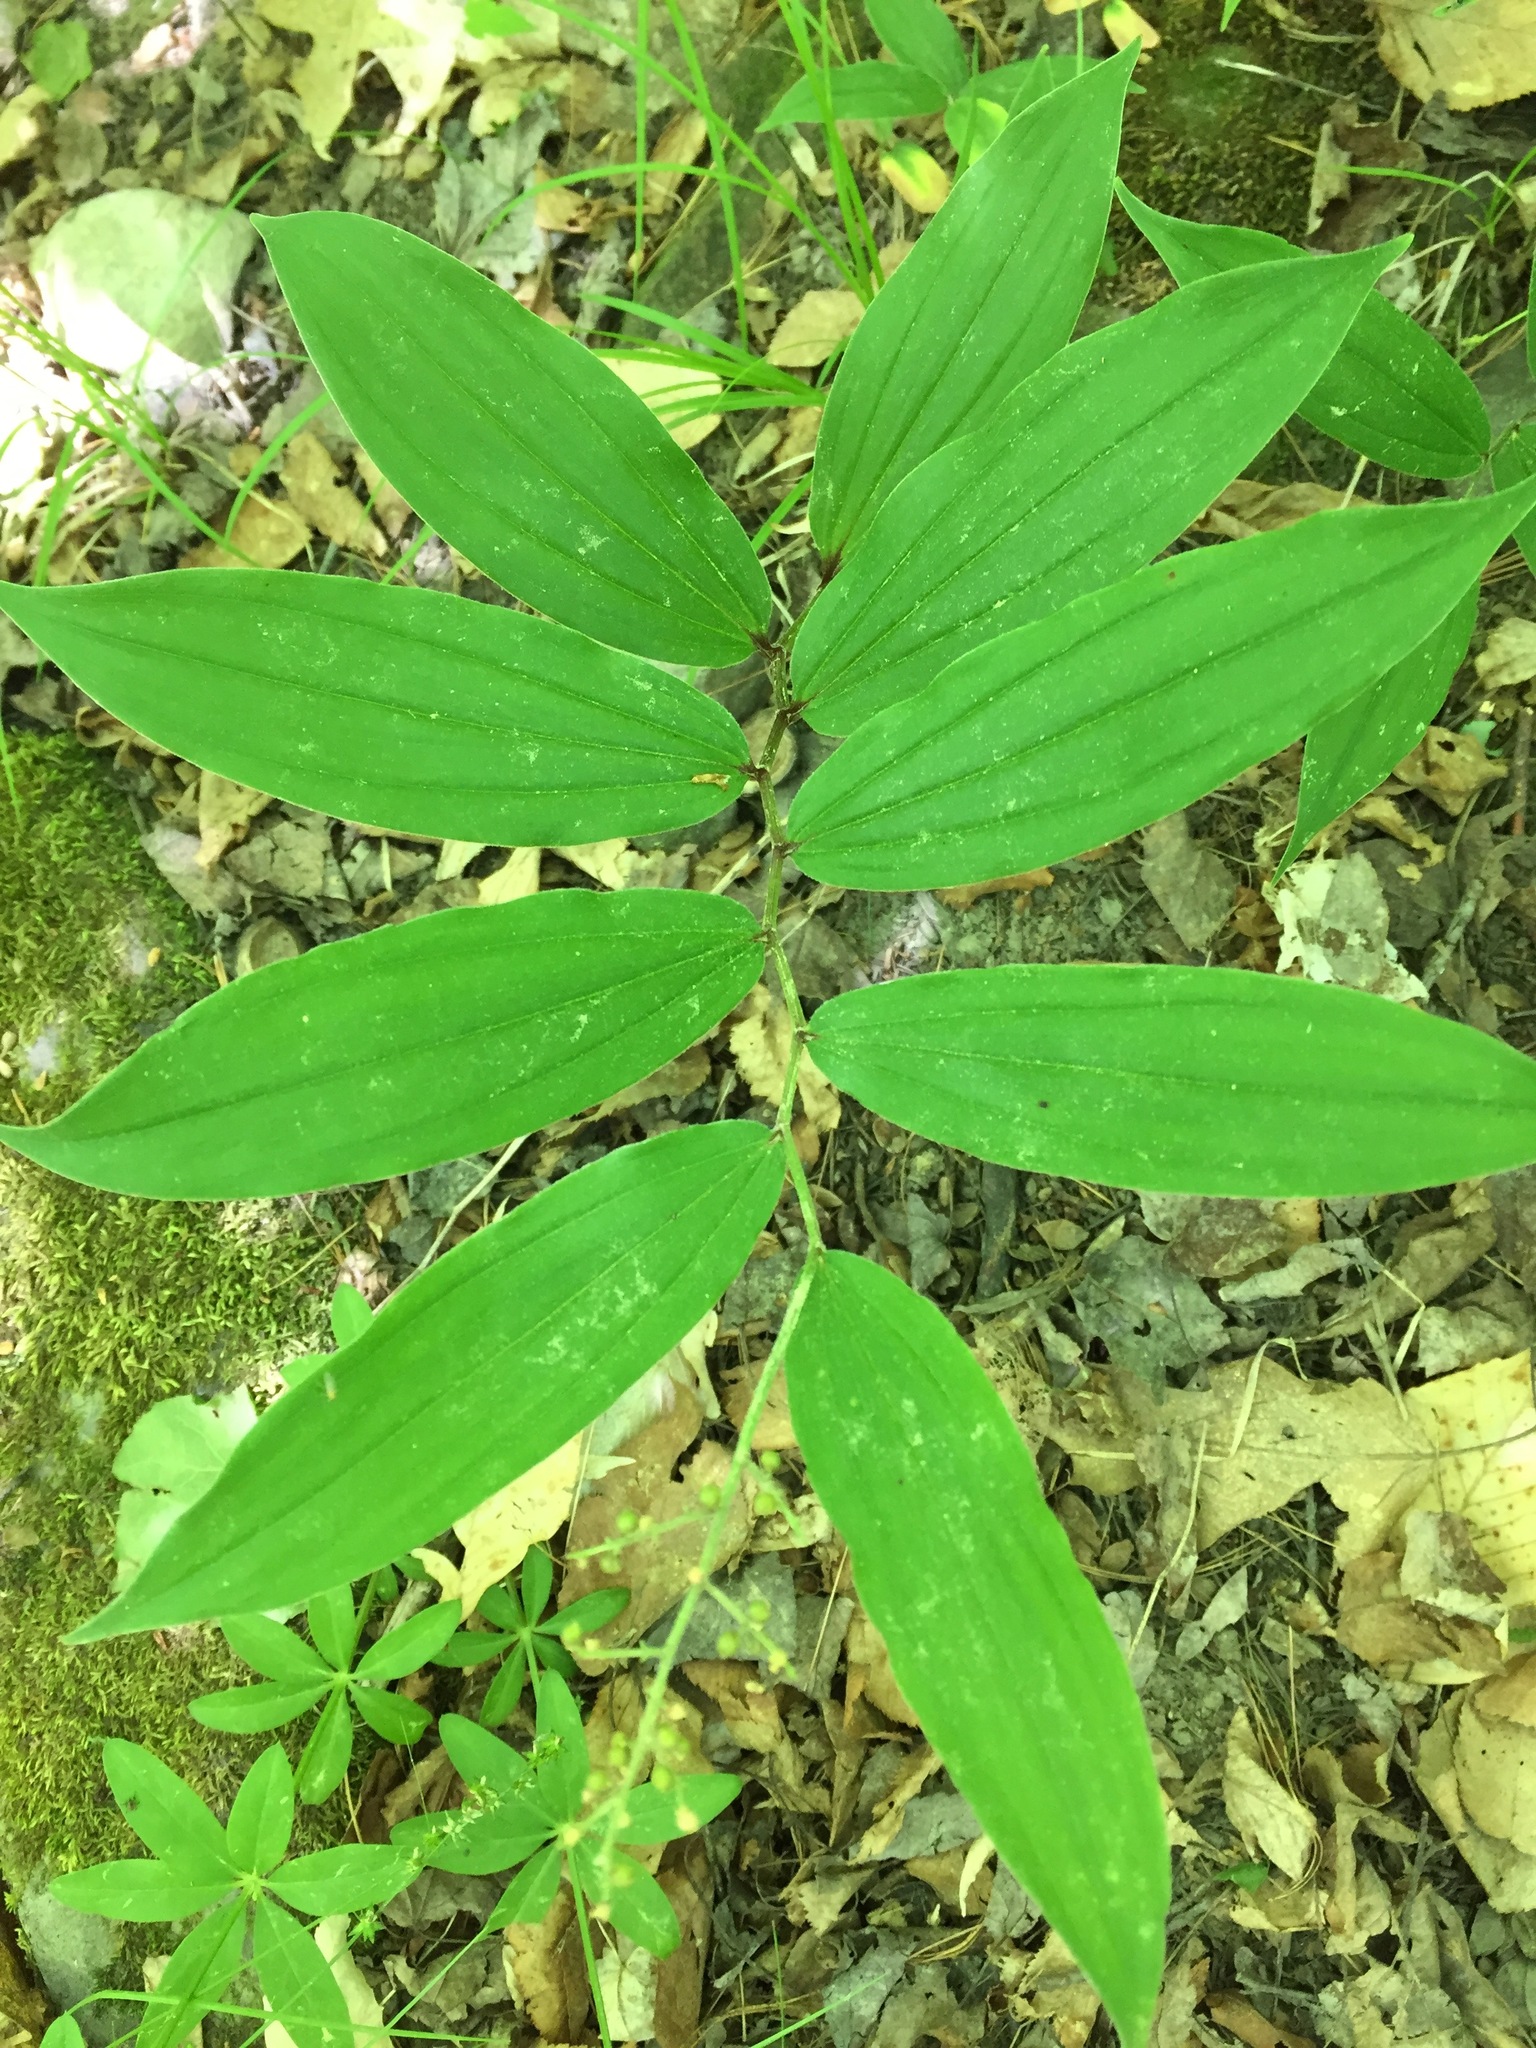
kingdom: Plantae
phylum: Tracheophyta
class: Liliopsida
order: Asparagales
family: Asparagaceae
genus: Maianthemum
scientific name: Maianthemum racemosum
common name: False spikenard
